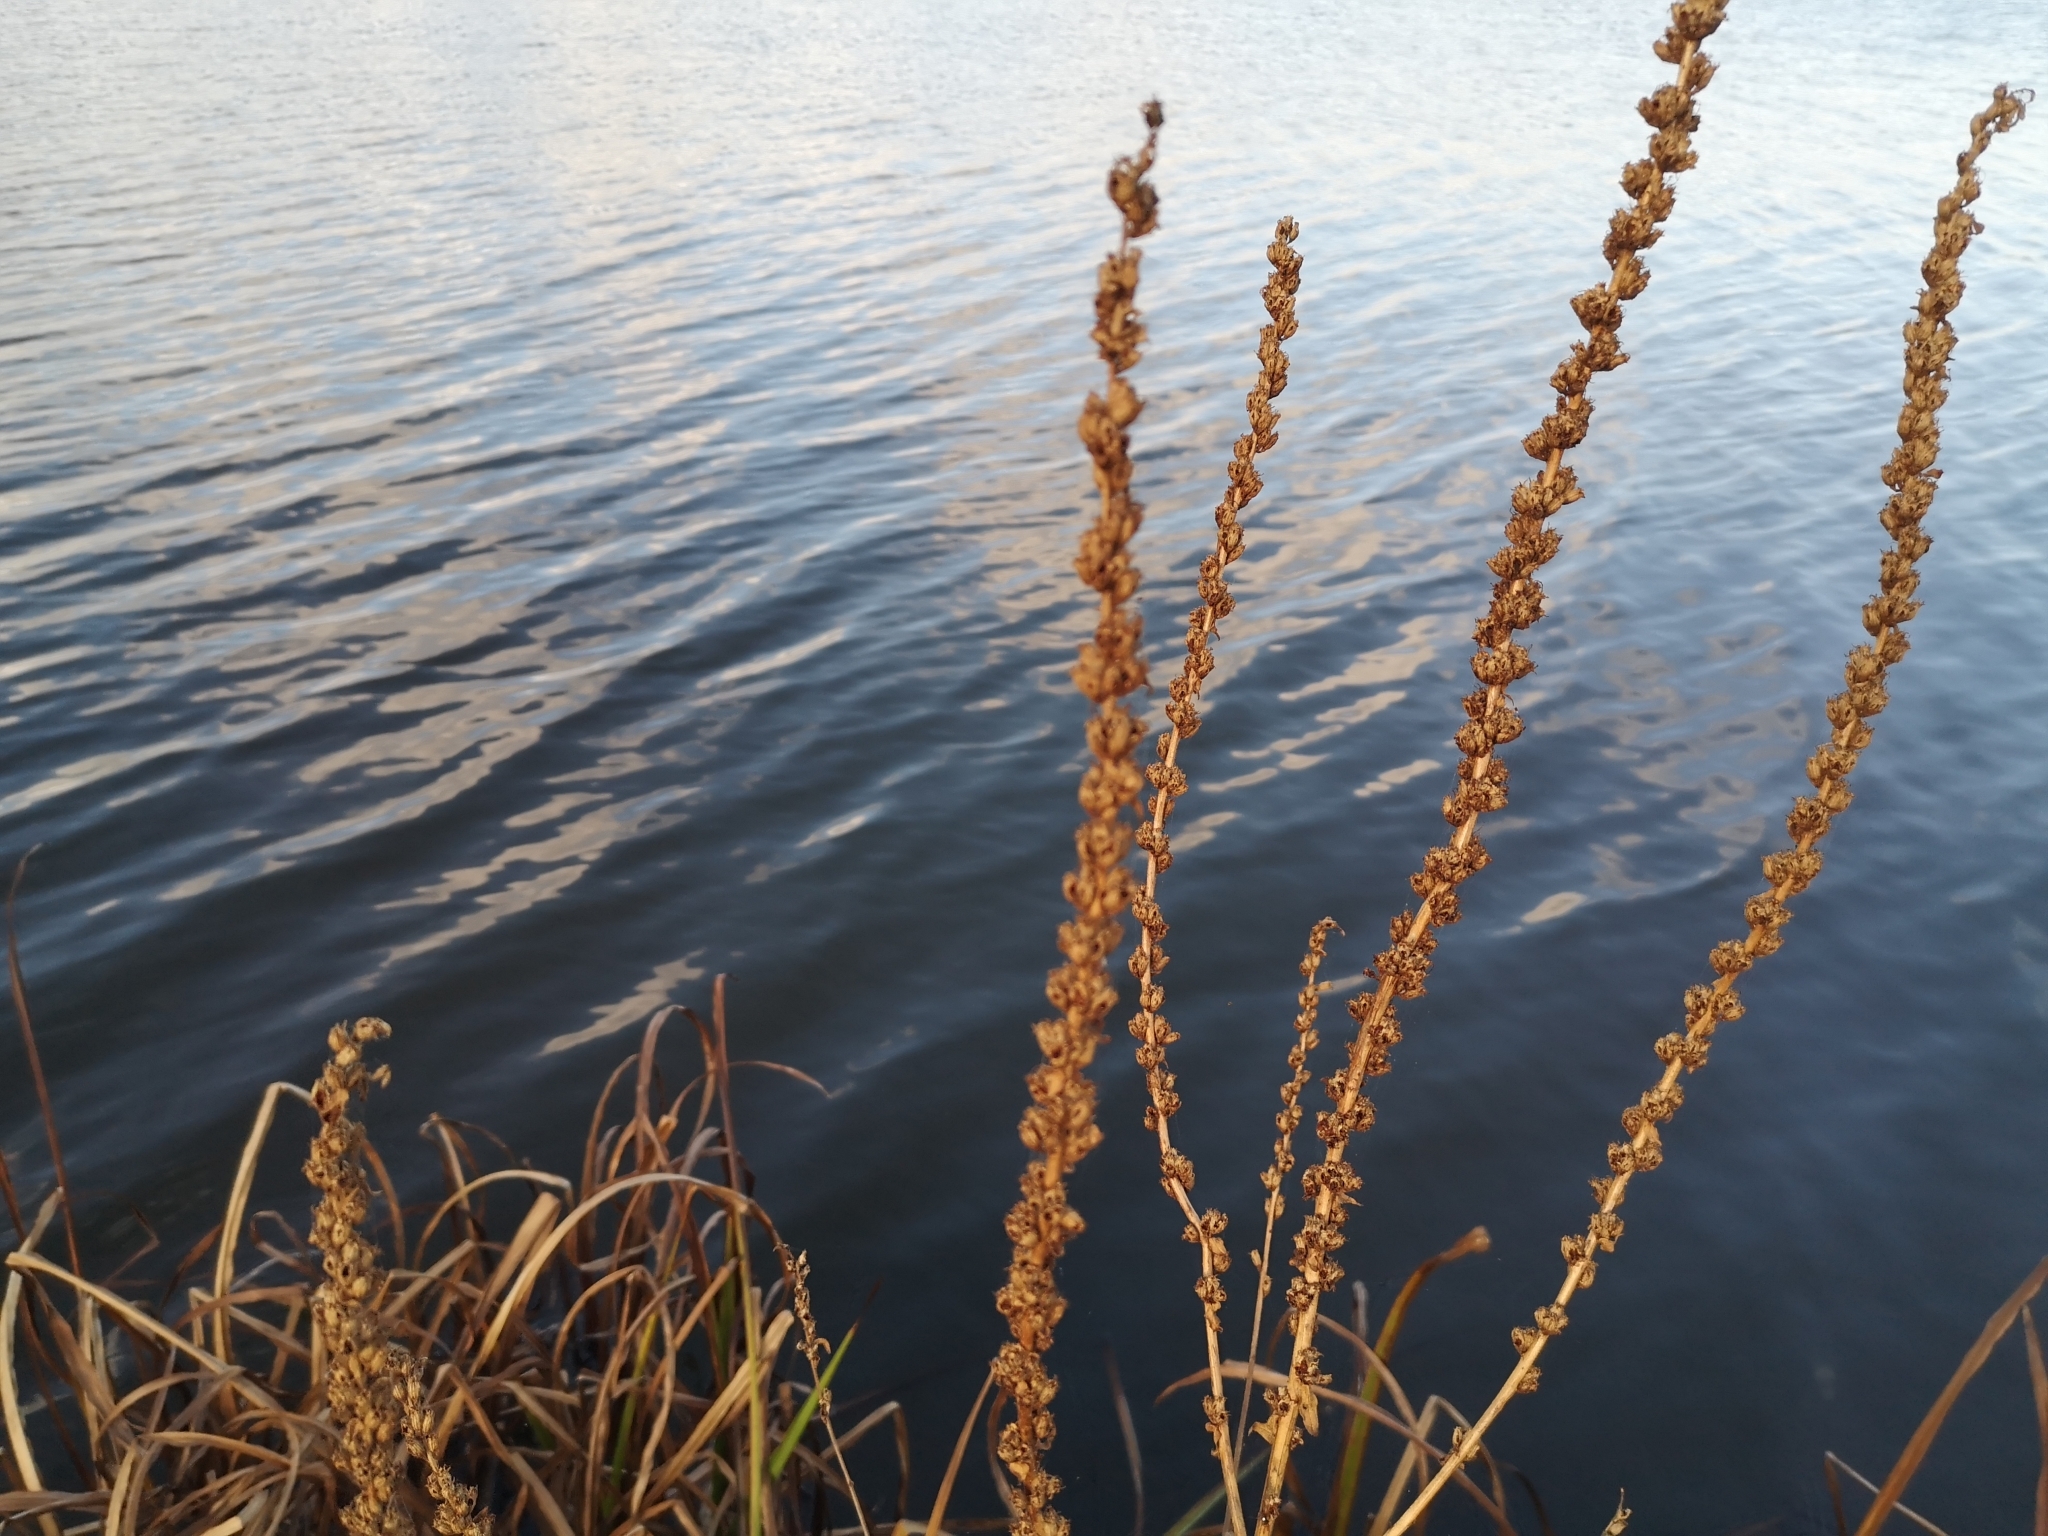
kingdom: Plantae
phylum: Tracheophyta
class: Magnoliopsida
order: Myrtales
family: Lythraceae
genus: Lythrum
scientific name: Lythrum salicaria
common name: Purple loosestrife
